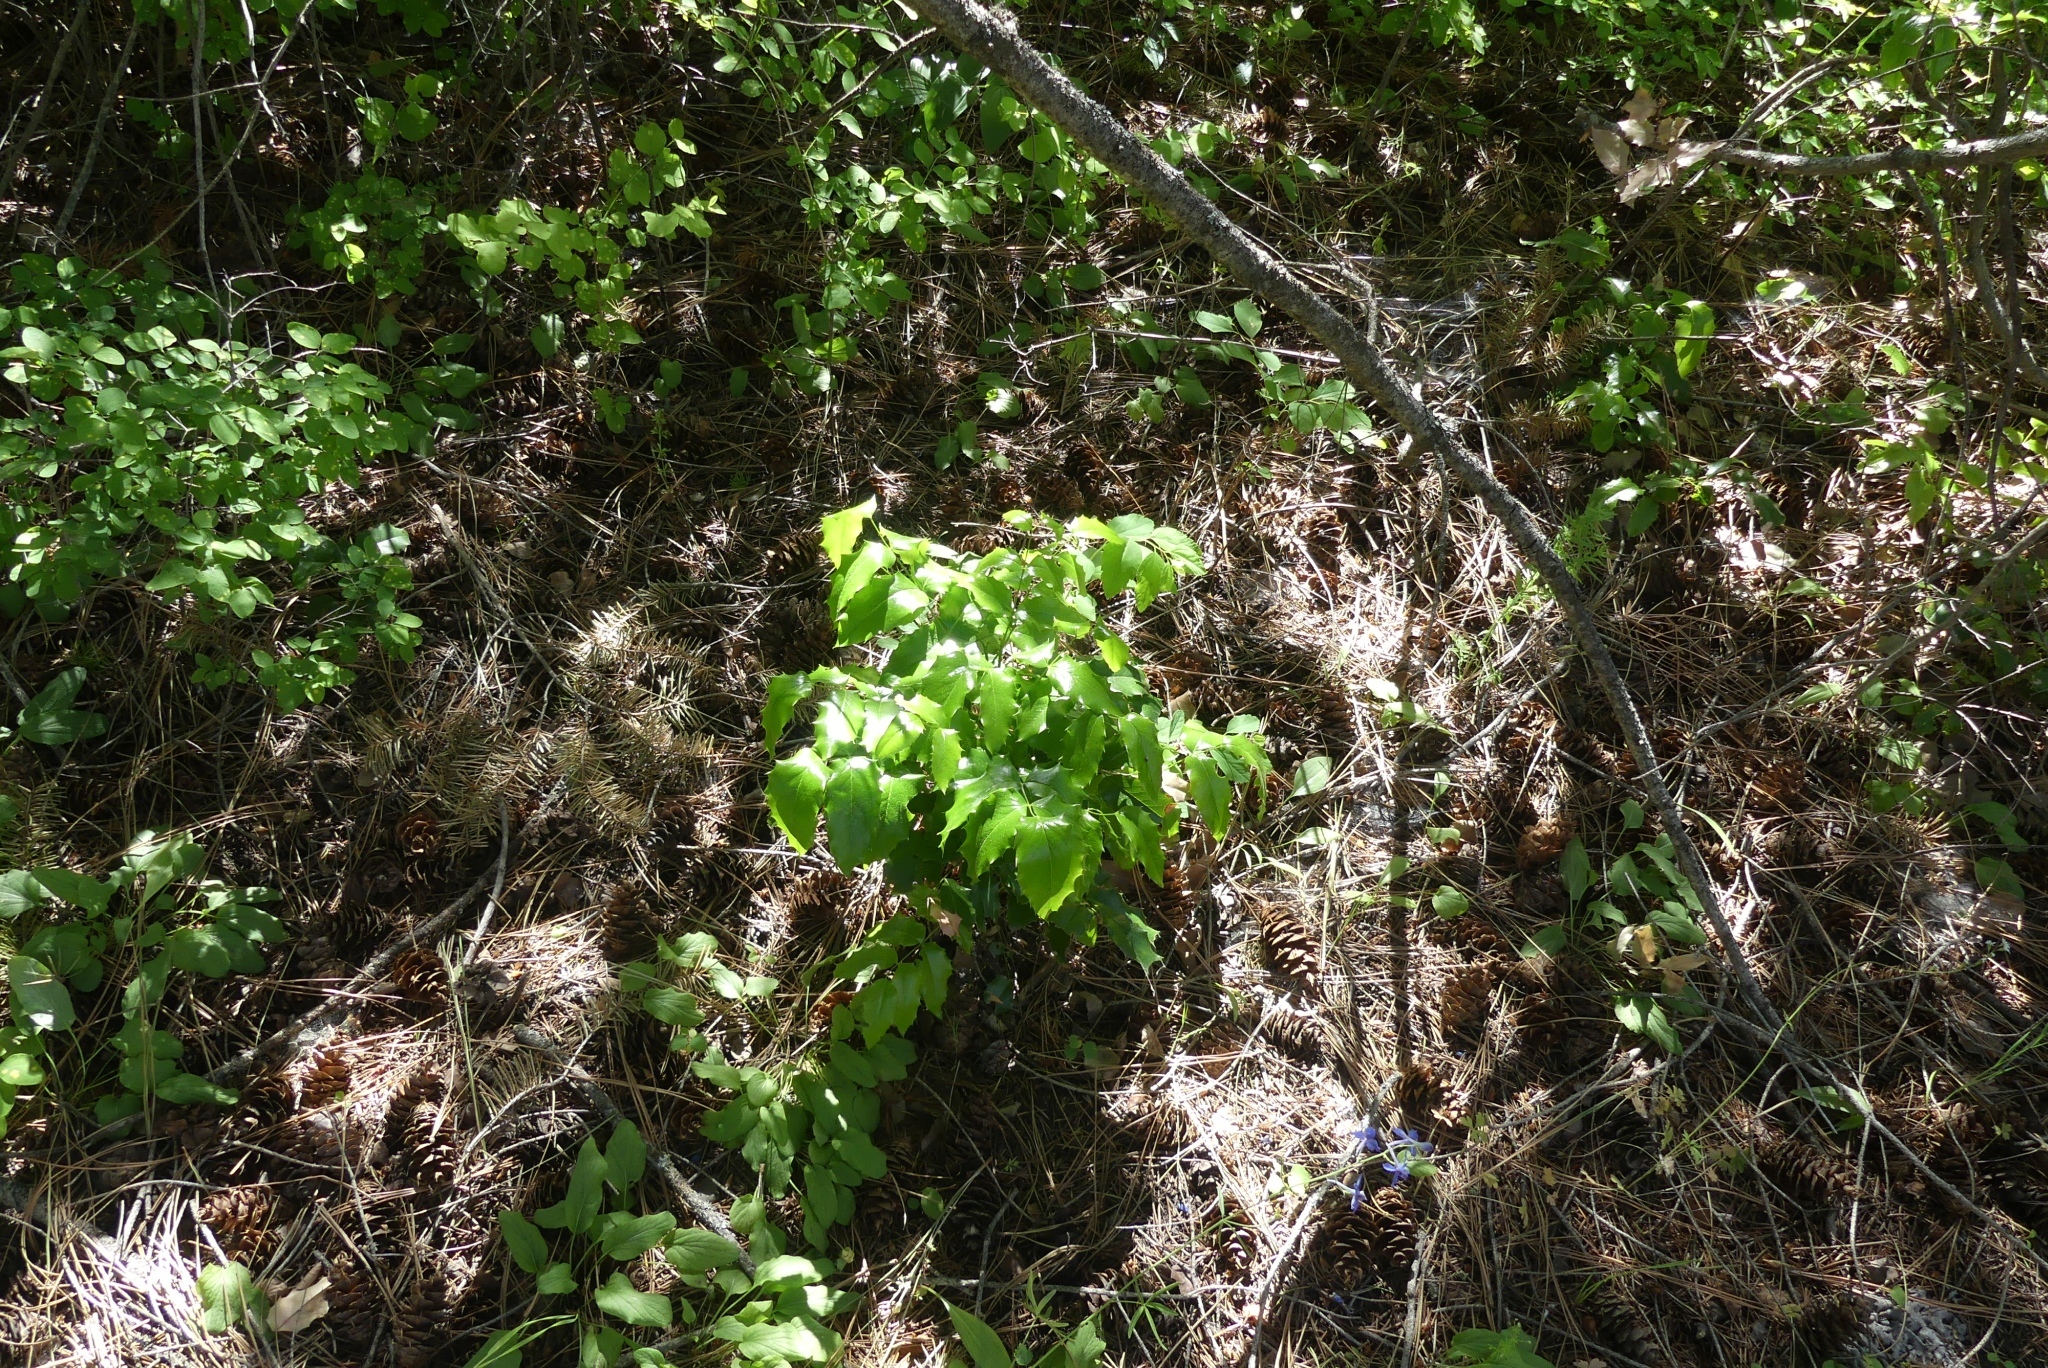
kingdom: Plantae
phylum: Tracheophyta
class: Magnoliopsida
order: Ranunculales
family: Berberidaceae
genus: Mahonia
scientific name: Mahonia aquifolium
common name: Oregon-grape
